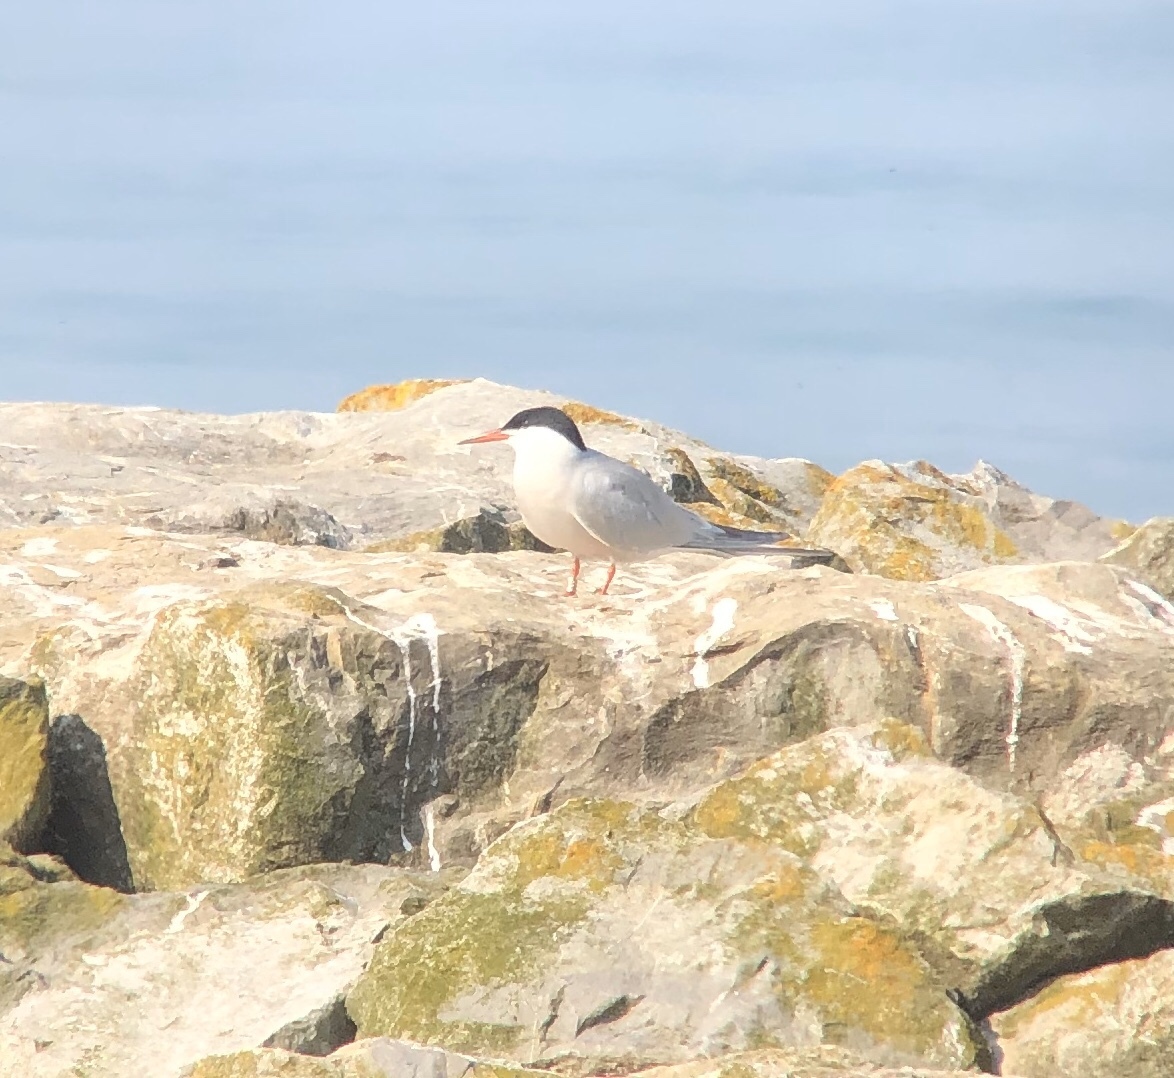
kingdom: Animalia
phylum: Chordata
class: Aves
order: Charadriiformes
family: Laridae
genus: Sterna
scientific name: Sterna hirundo
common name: Common tern
